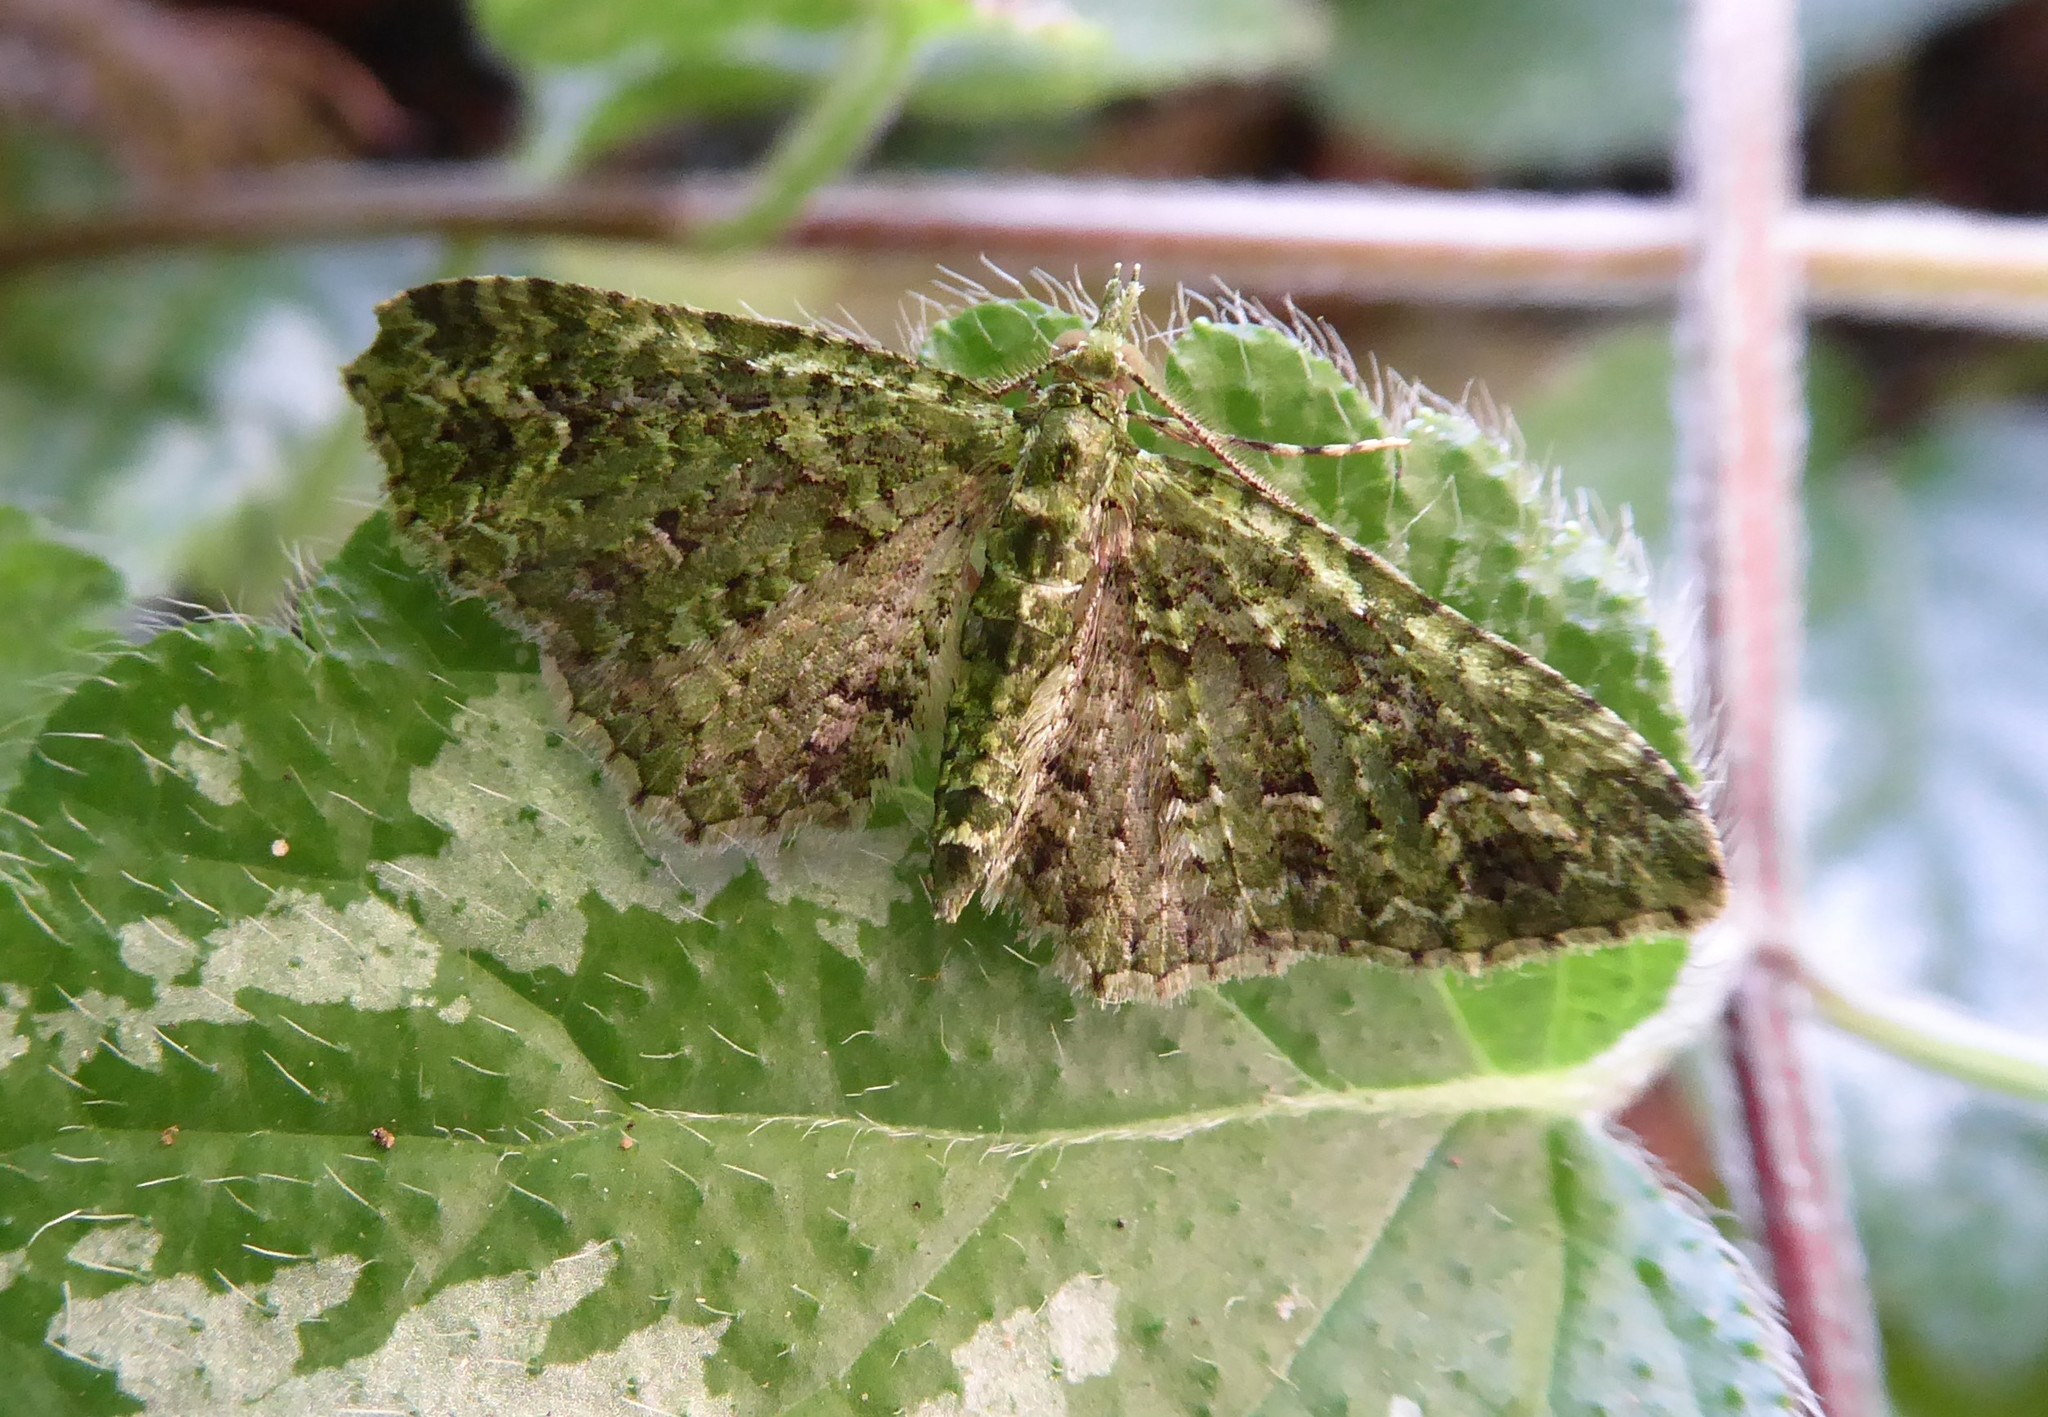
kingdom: Animalia
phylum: Arthropoda
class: Insecta
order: Lepidoptera
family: Geometridae
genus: Pasiphila
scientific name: Pasiphila muscosata
